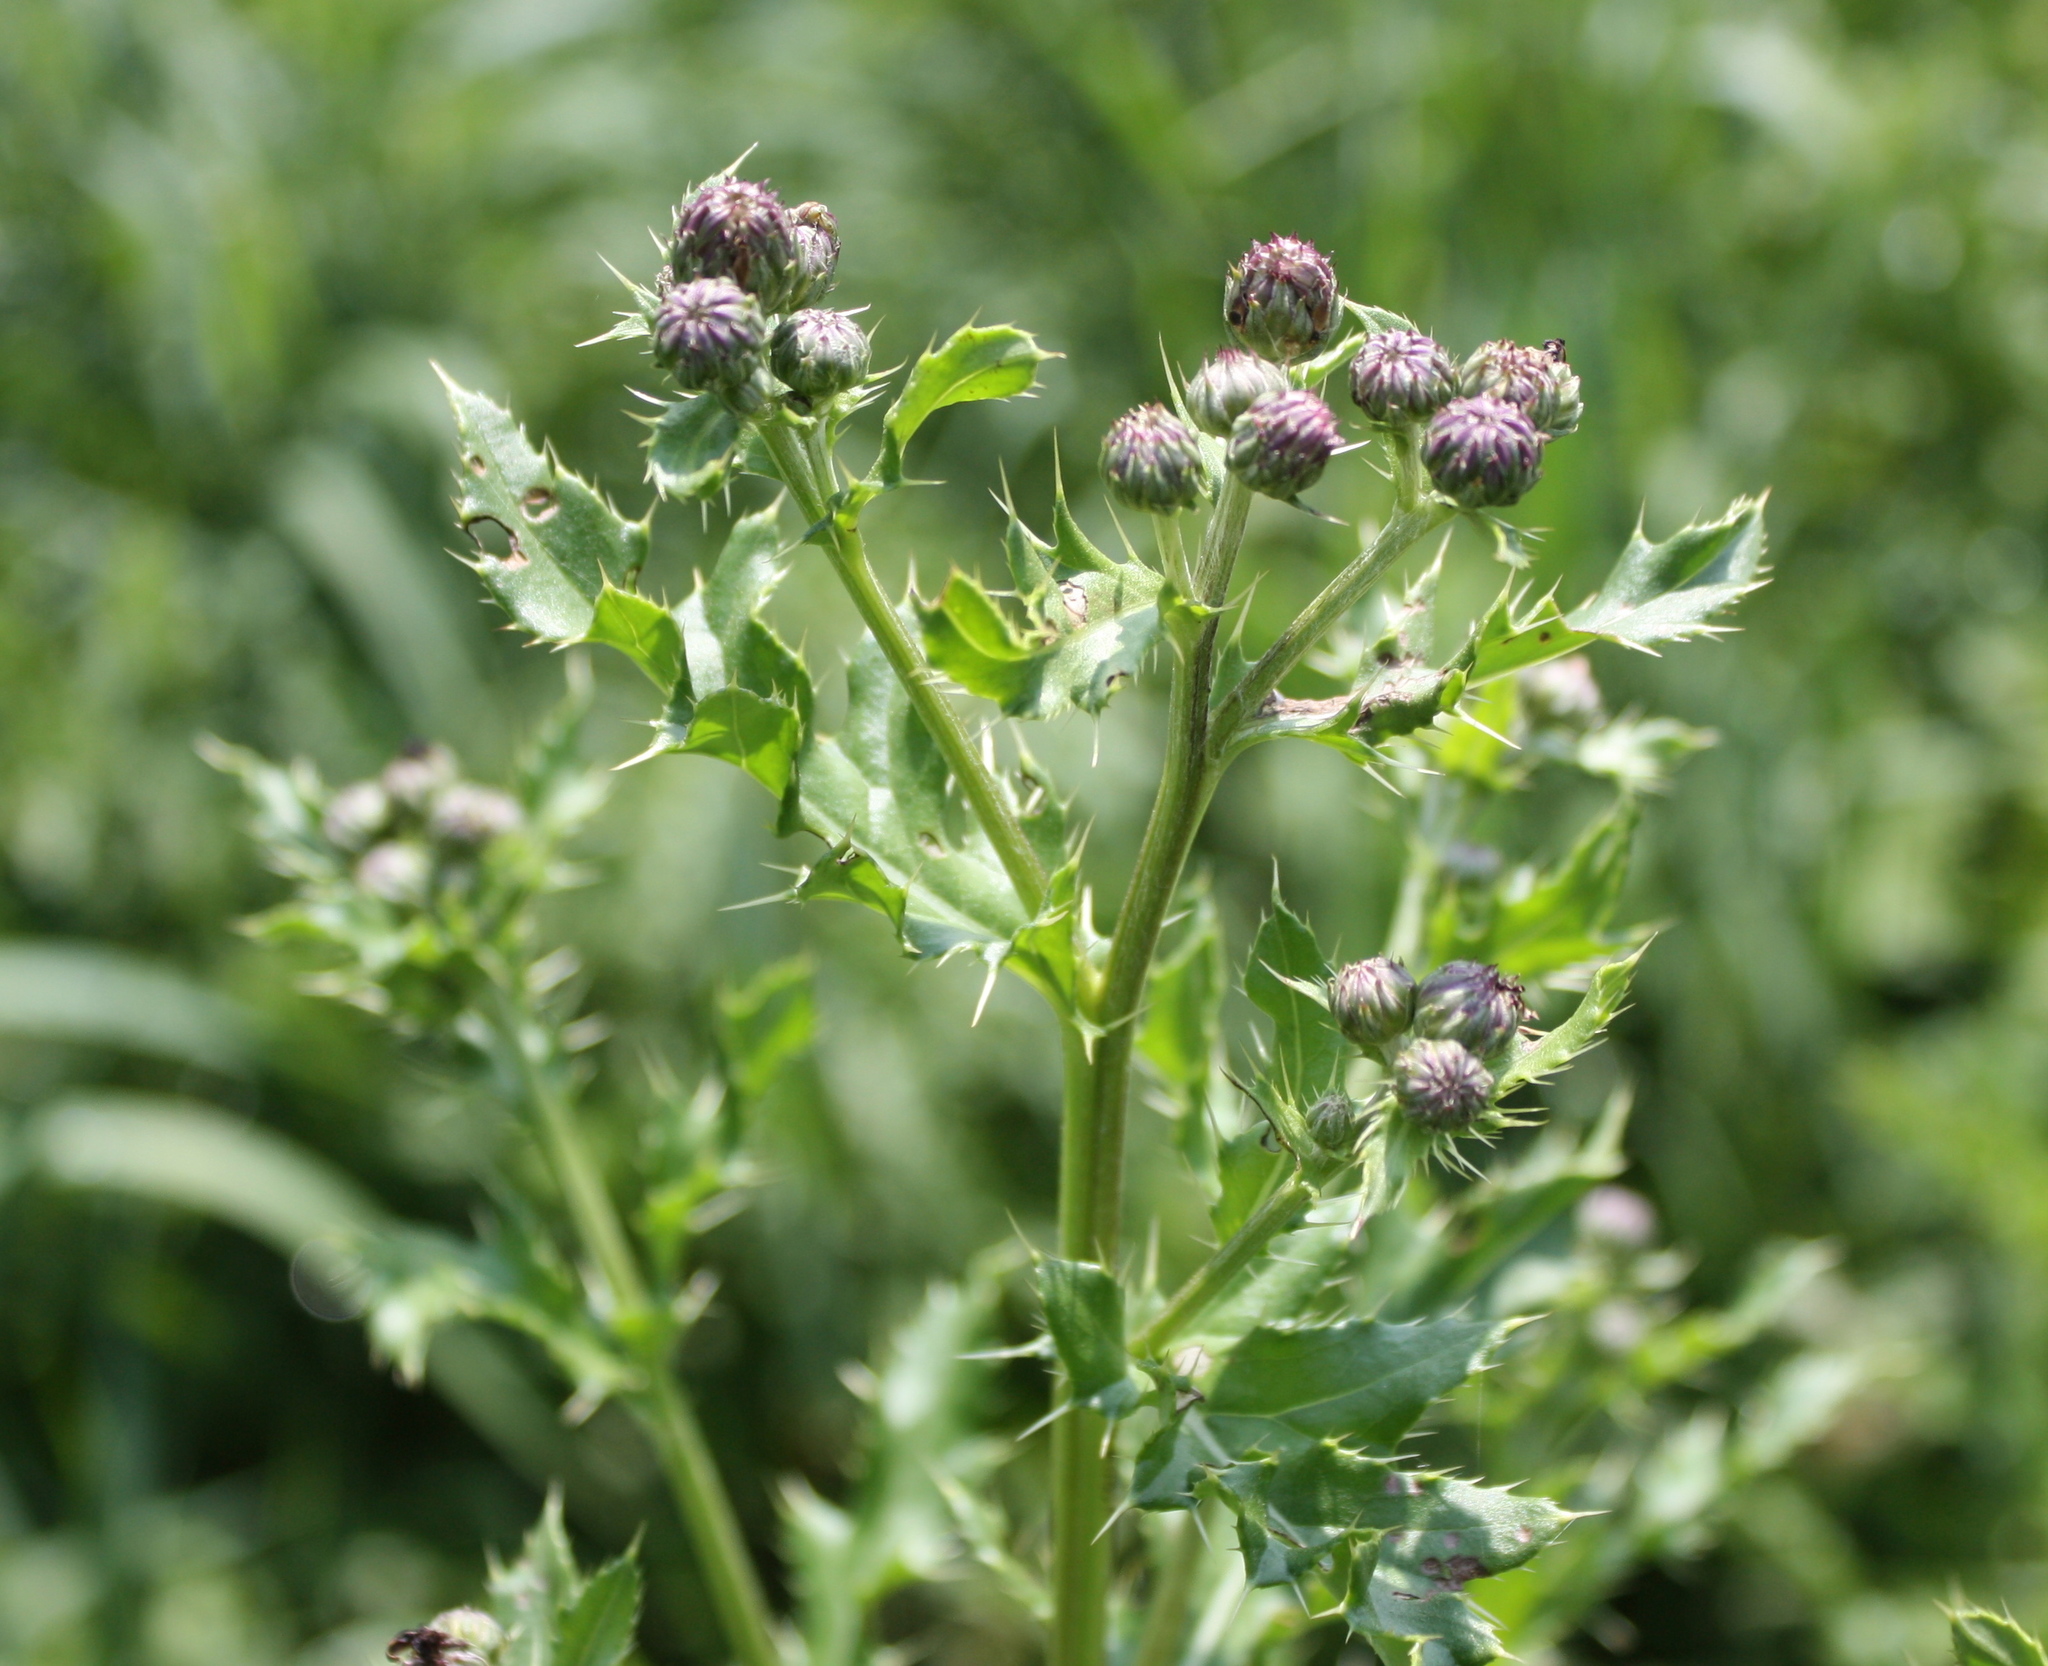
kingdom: Plantae
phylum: Tracheophyta
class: Magnoliopsida
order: Asterales
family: Asteraceae
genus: Cirsium
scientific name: Cirsium arvense
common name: Creeping thistle
